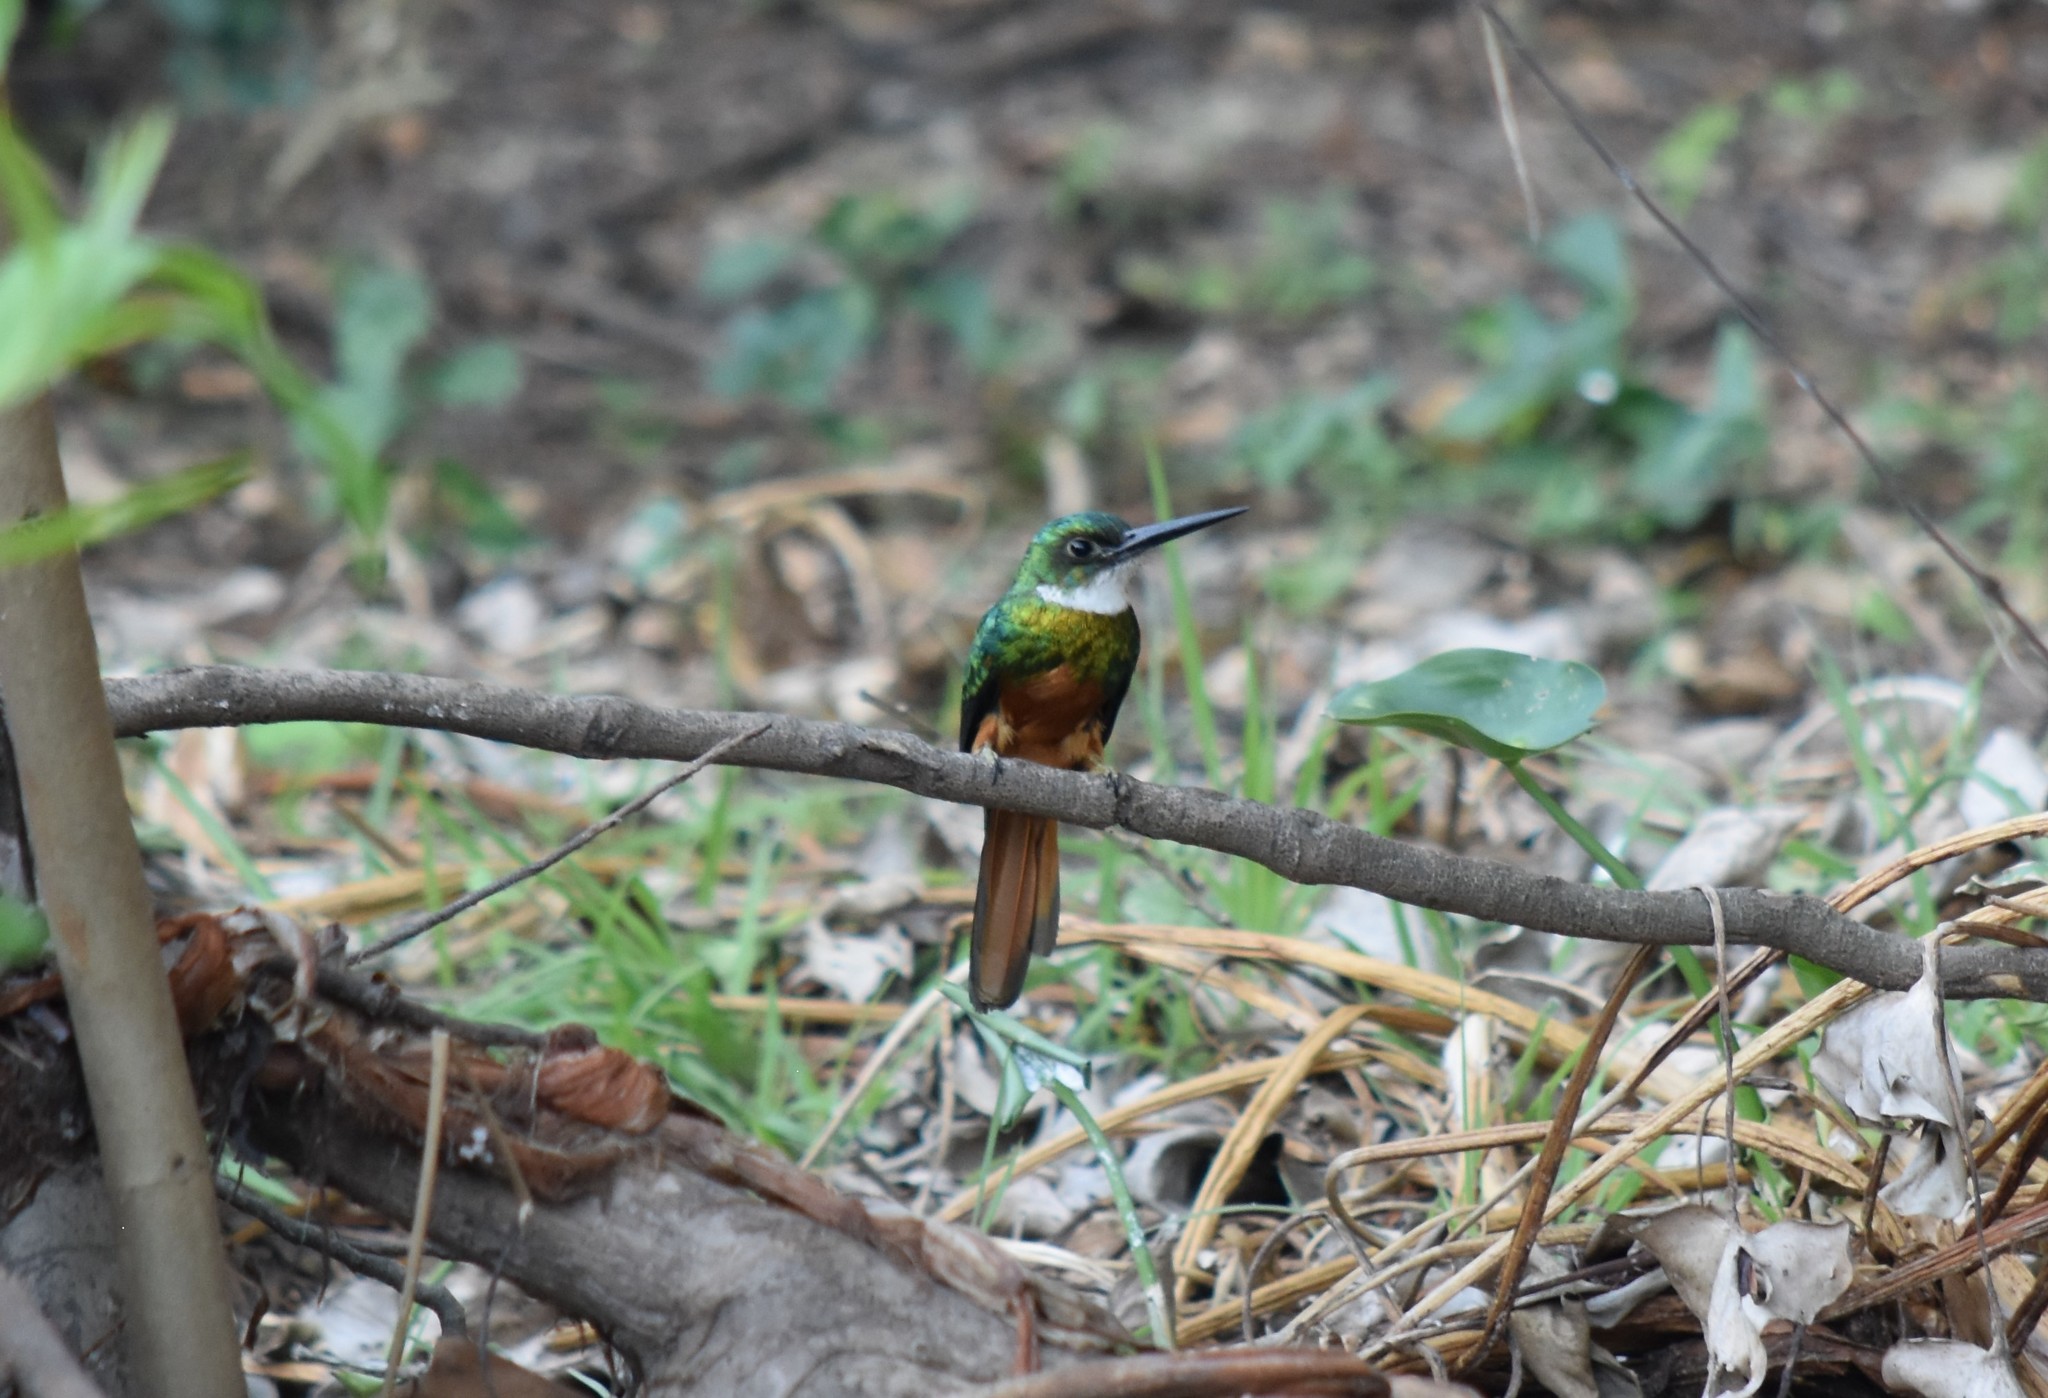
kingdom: Animalia
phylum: Chordata
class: Aves
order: Piciformes
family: Galbulidae
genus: Galbula
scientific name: Galbula ruficauda
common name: Rufous-tailed jacamar
